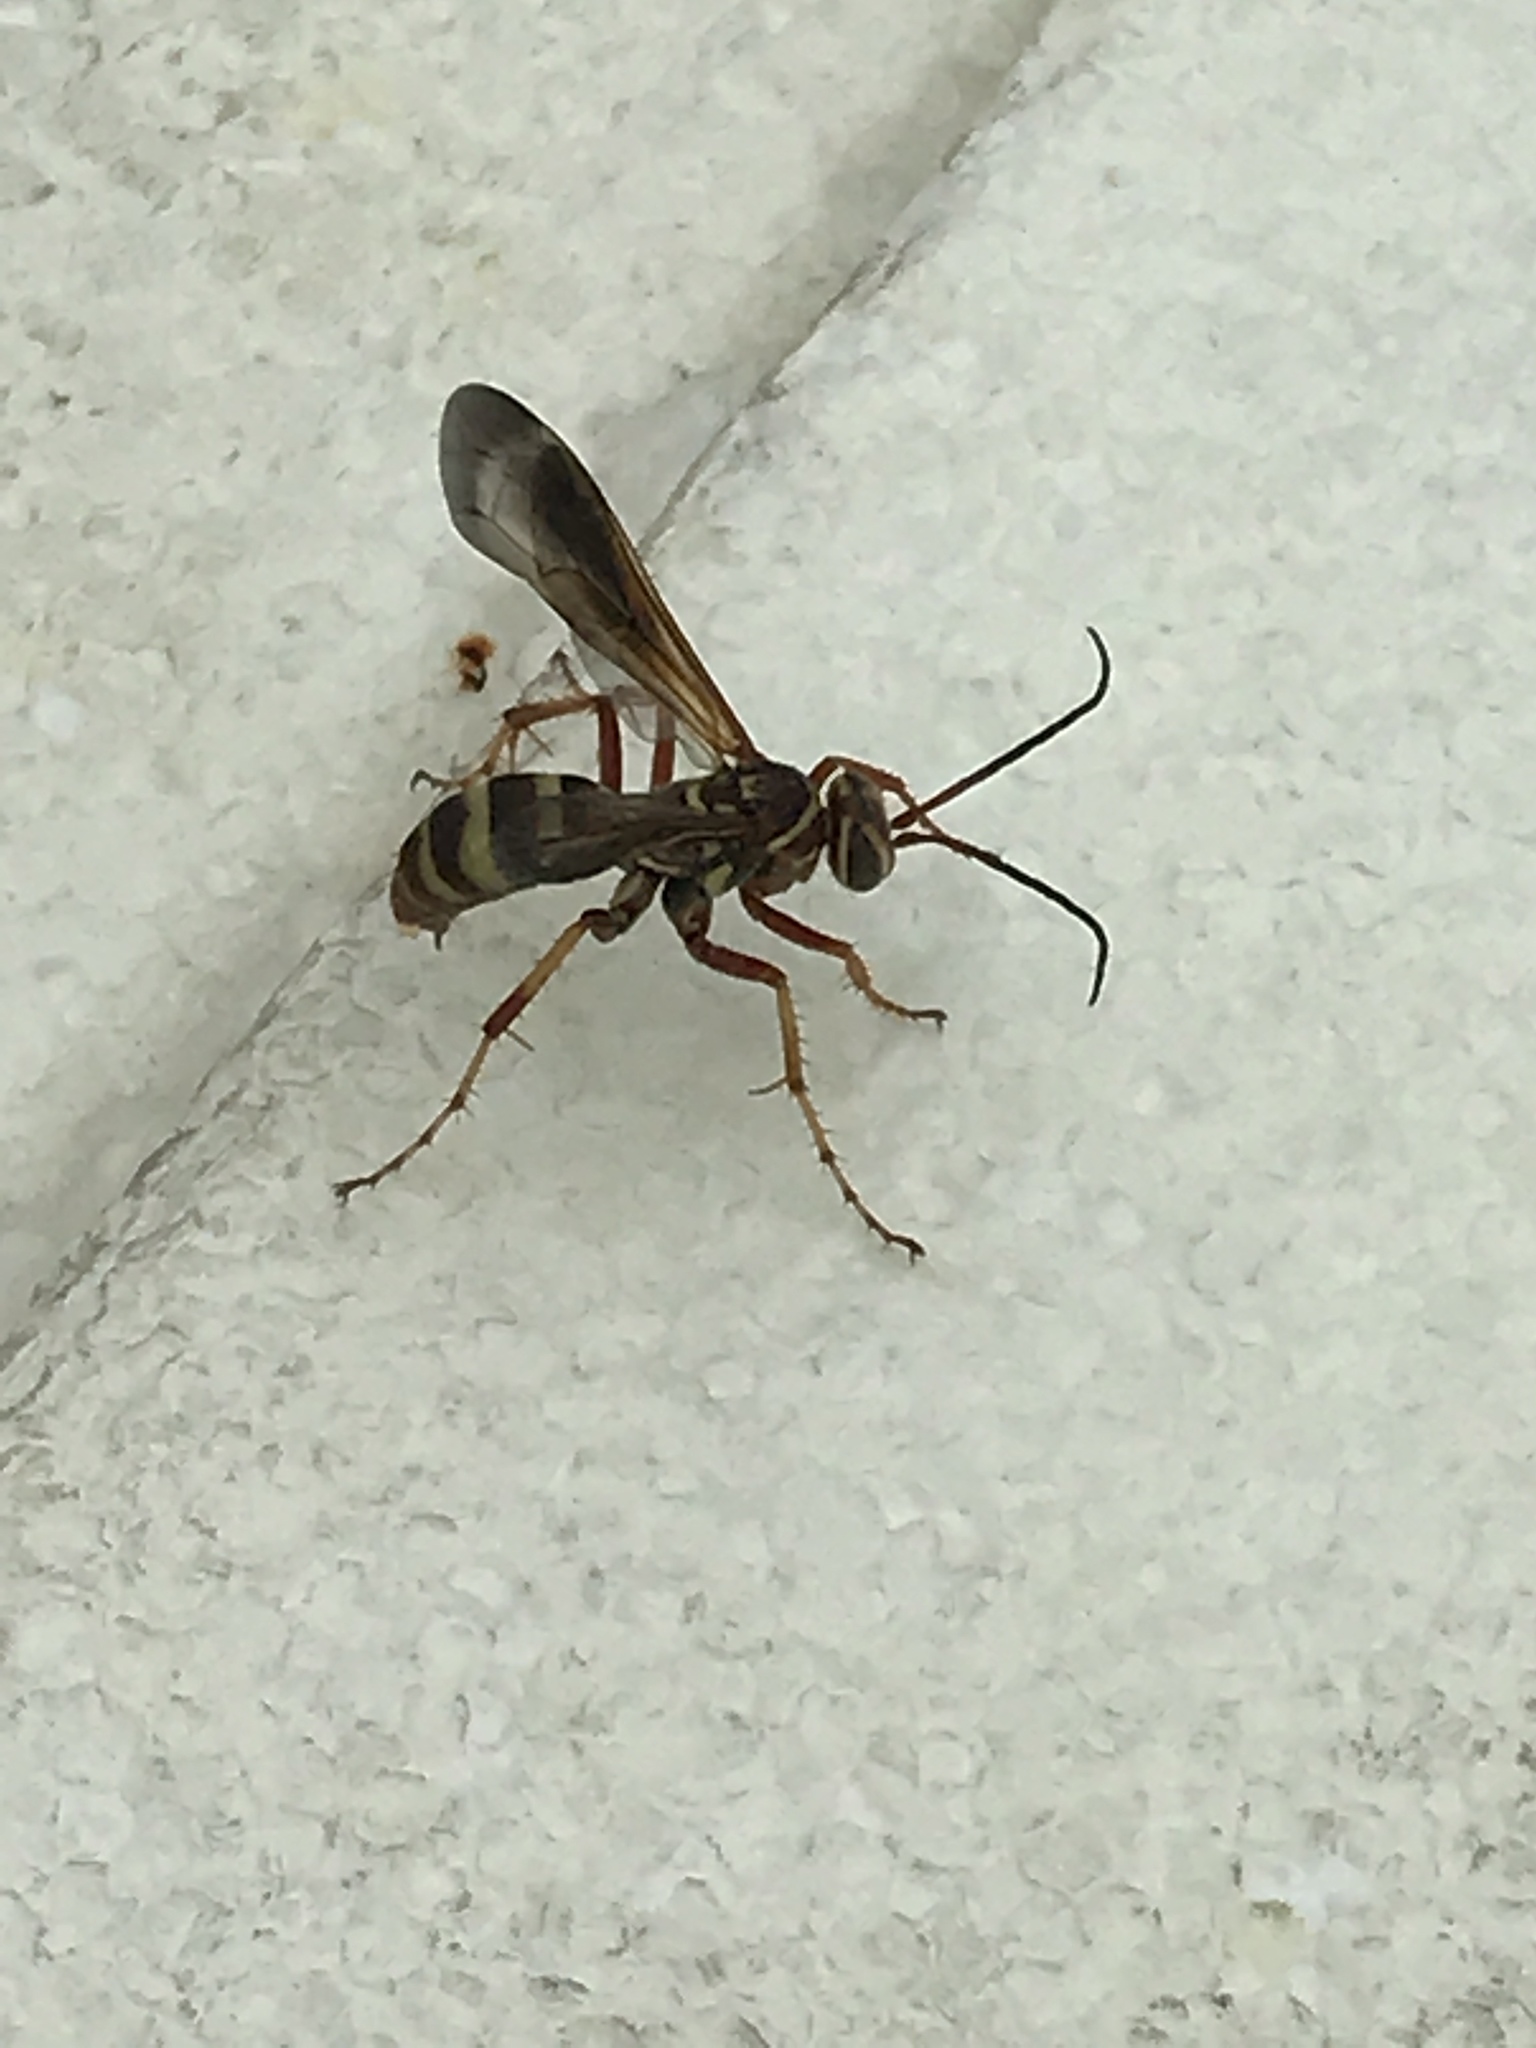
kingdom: Animalia
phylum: Arthropoda
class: Insecta
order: Hymenoptera
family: Pompilidae
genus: Poecilopompilus
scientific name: Poecilopompilus interruptus
